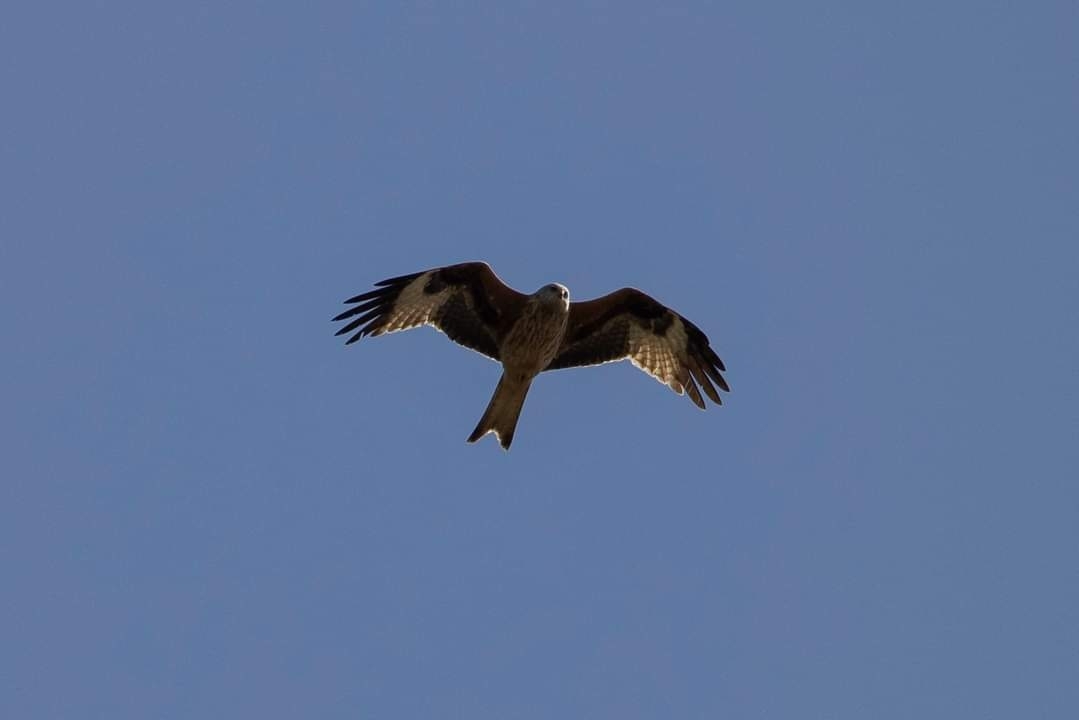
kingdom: Animalia
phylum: Chordata
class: Aves
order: Accipitriformes
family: Accipitridae
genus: Milvus
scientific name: Milvus milvus
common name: Red kite
